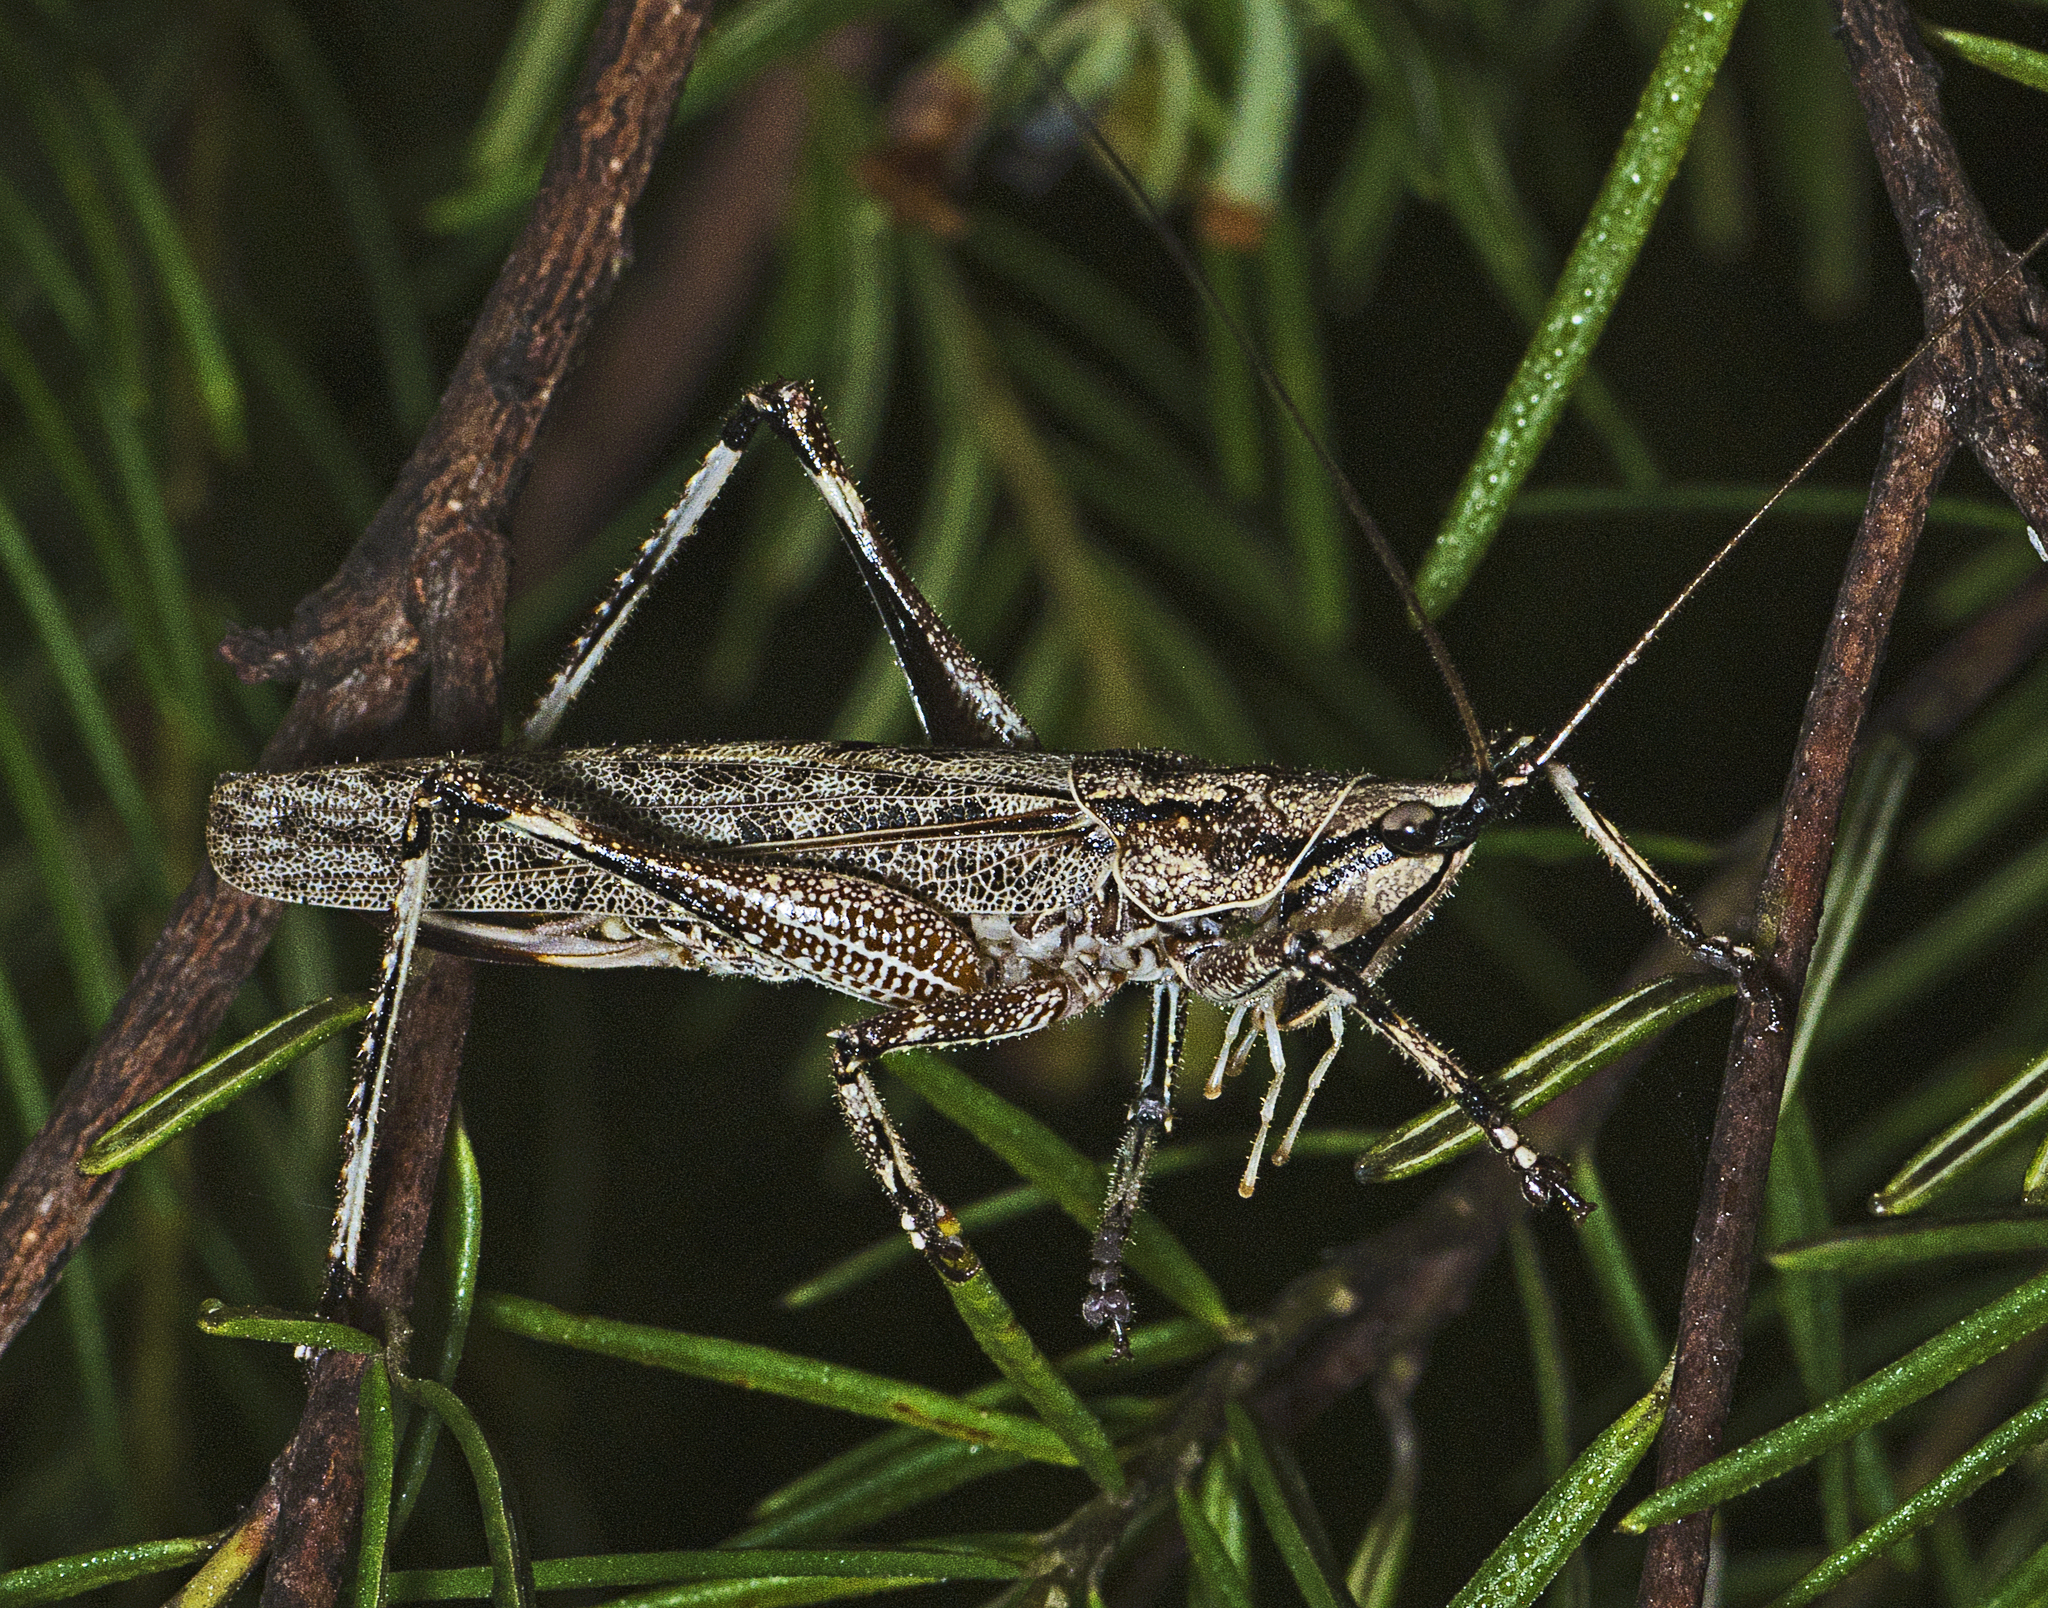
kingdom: Animalia
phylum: Arthropoda
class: Insecta
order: Orthoptera
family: Tettigoniidae
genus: Larifugagraecia
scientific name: Larifugagraecia cornuta
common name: Spine-headed nicsara
